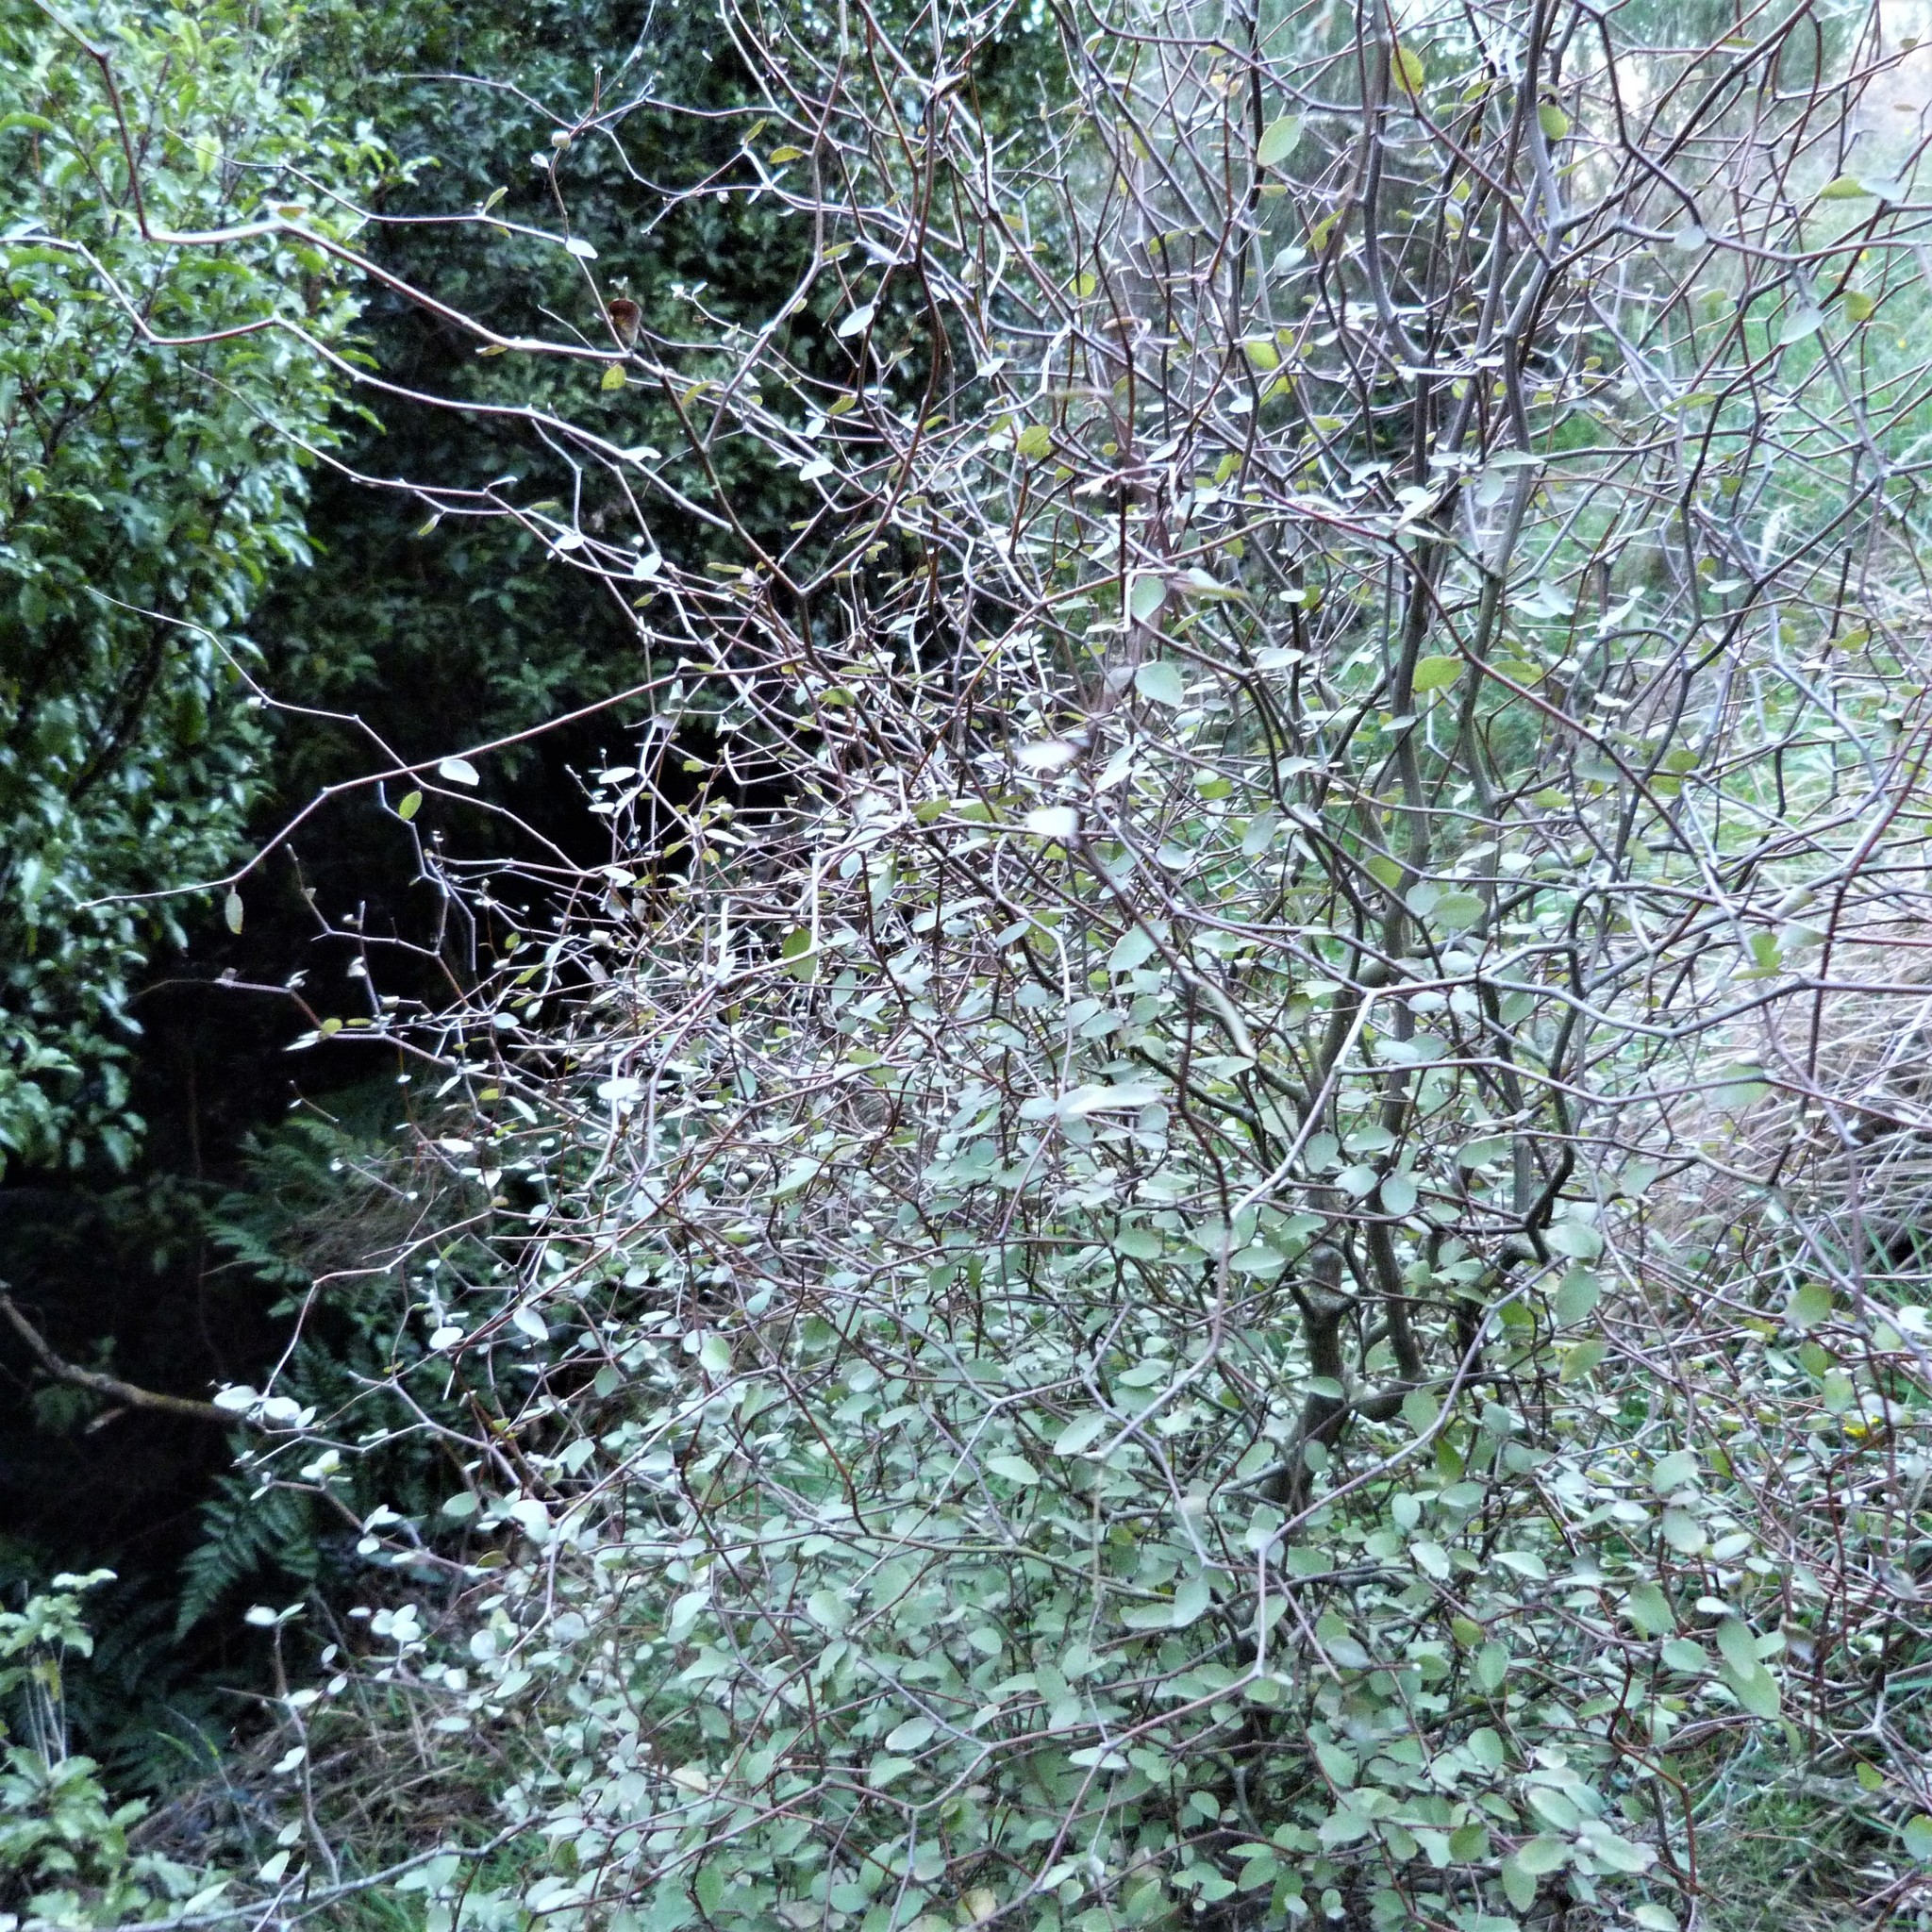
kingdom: Plantae
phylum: Tracheophyta
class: Magnoliopsida
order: Asterales
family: Asteraceae
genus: Olearia
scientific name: Olearia fragrantissima
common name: Fragrant tree daisy
